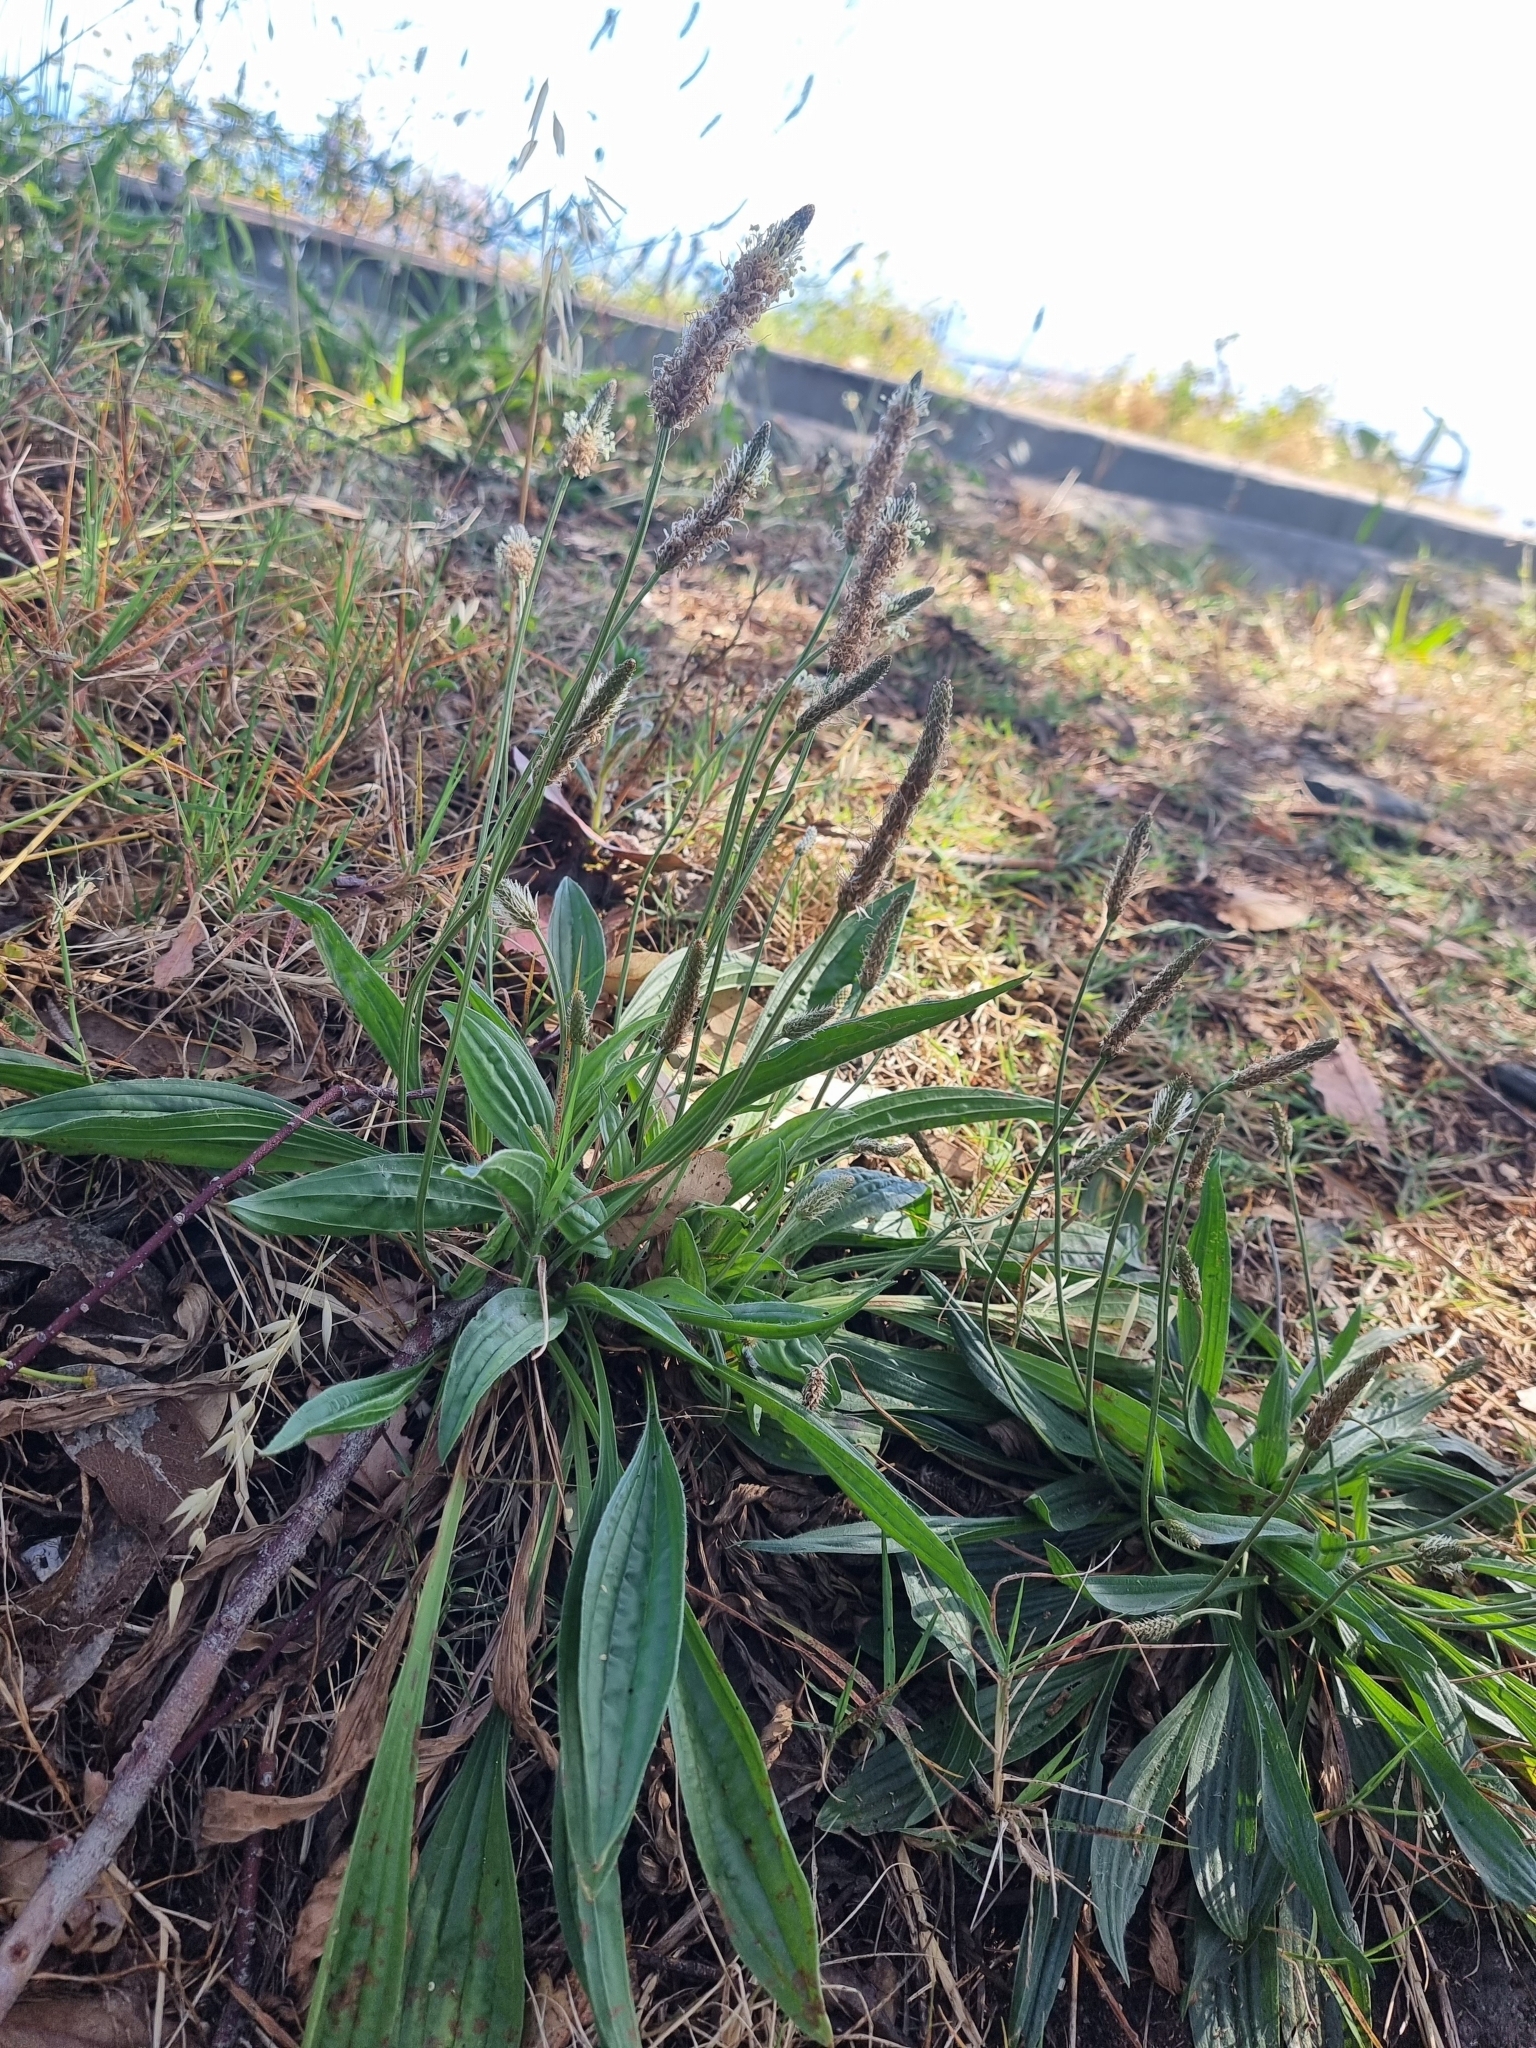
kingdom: Plantae
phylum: Tracheophyta
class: Magnoliopsida
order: Lamiales
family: Plantaginaceae
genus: Plantago
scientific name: Plantago lanceolata
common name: Ribwort plantain
